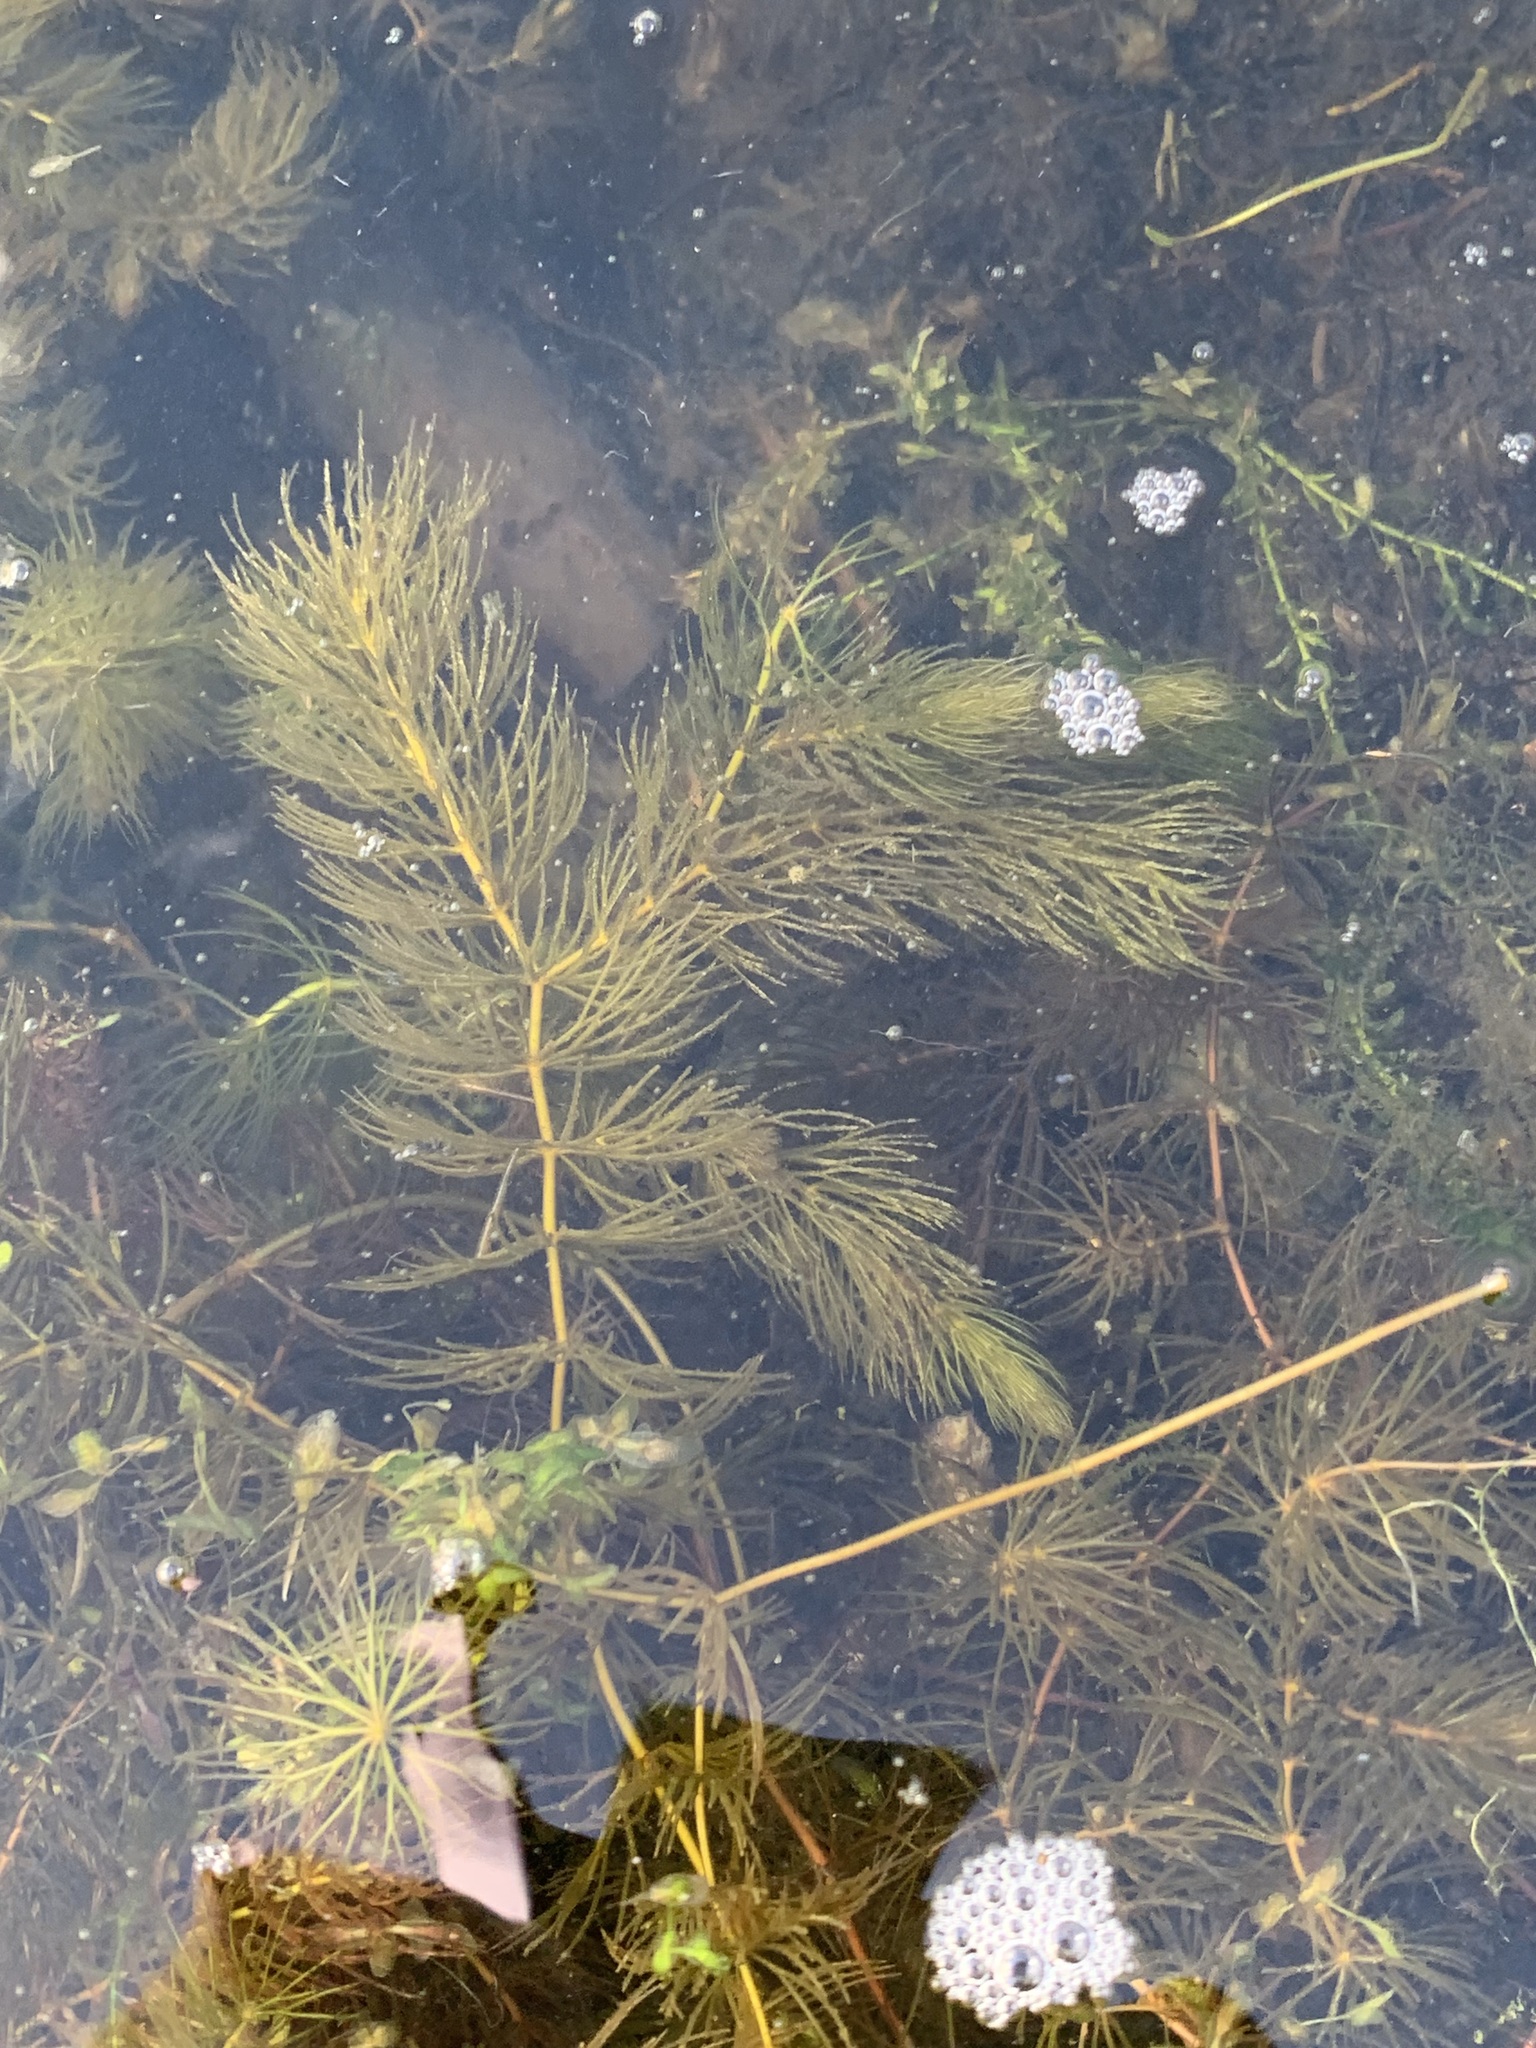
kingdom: Plantae
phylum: Tracheophyta
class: Magnoliopsida
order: Ceratophyllales
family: Ceratophyllaceae
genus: Ceratophyllum
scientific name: Ceratophyllum demersum
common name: Rigid hornwort
